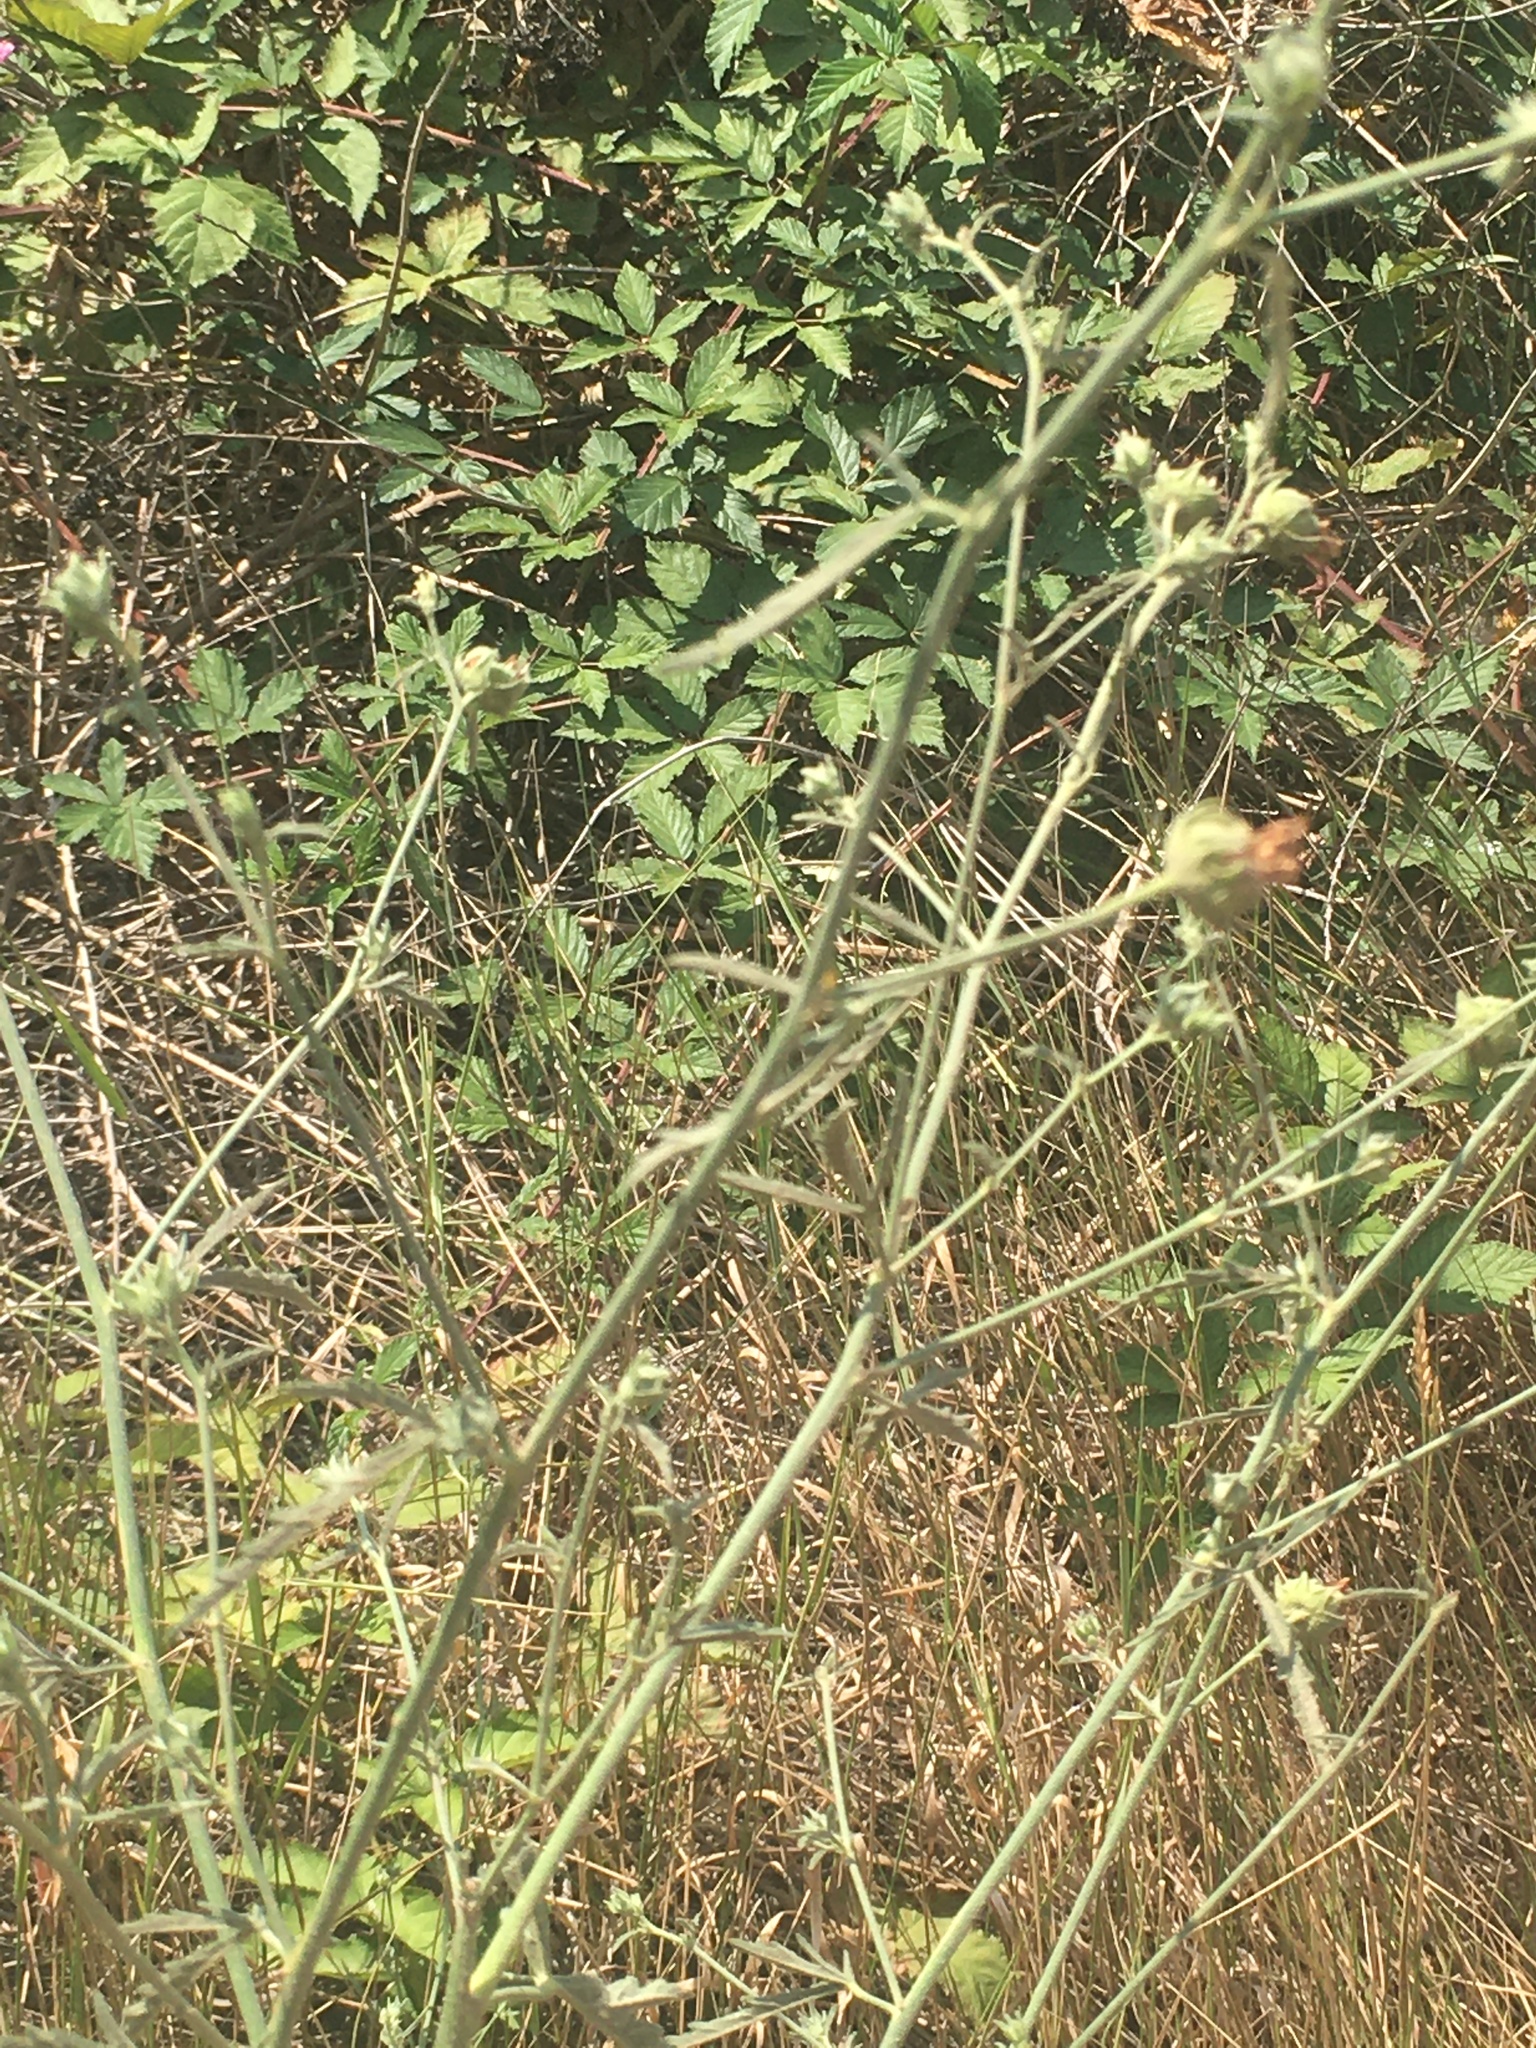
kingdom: Plantae
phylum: Tracheophyta
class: Magnoliopsida
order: Malvales
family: Malvaceae
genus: Althaea
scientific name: Althaea cannabina
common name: Palm-leaf marshmallow
